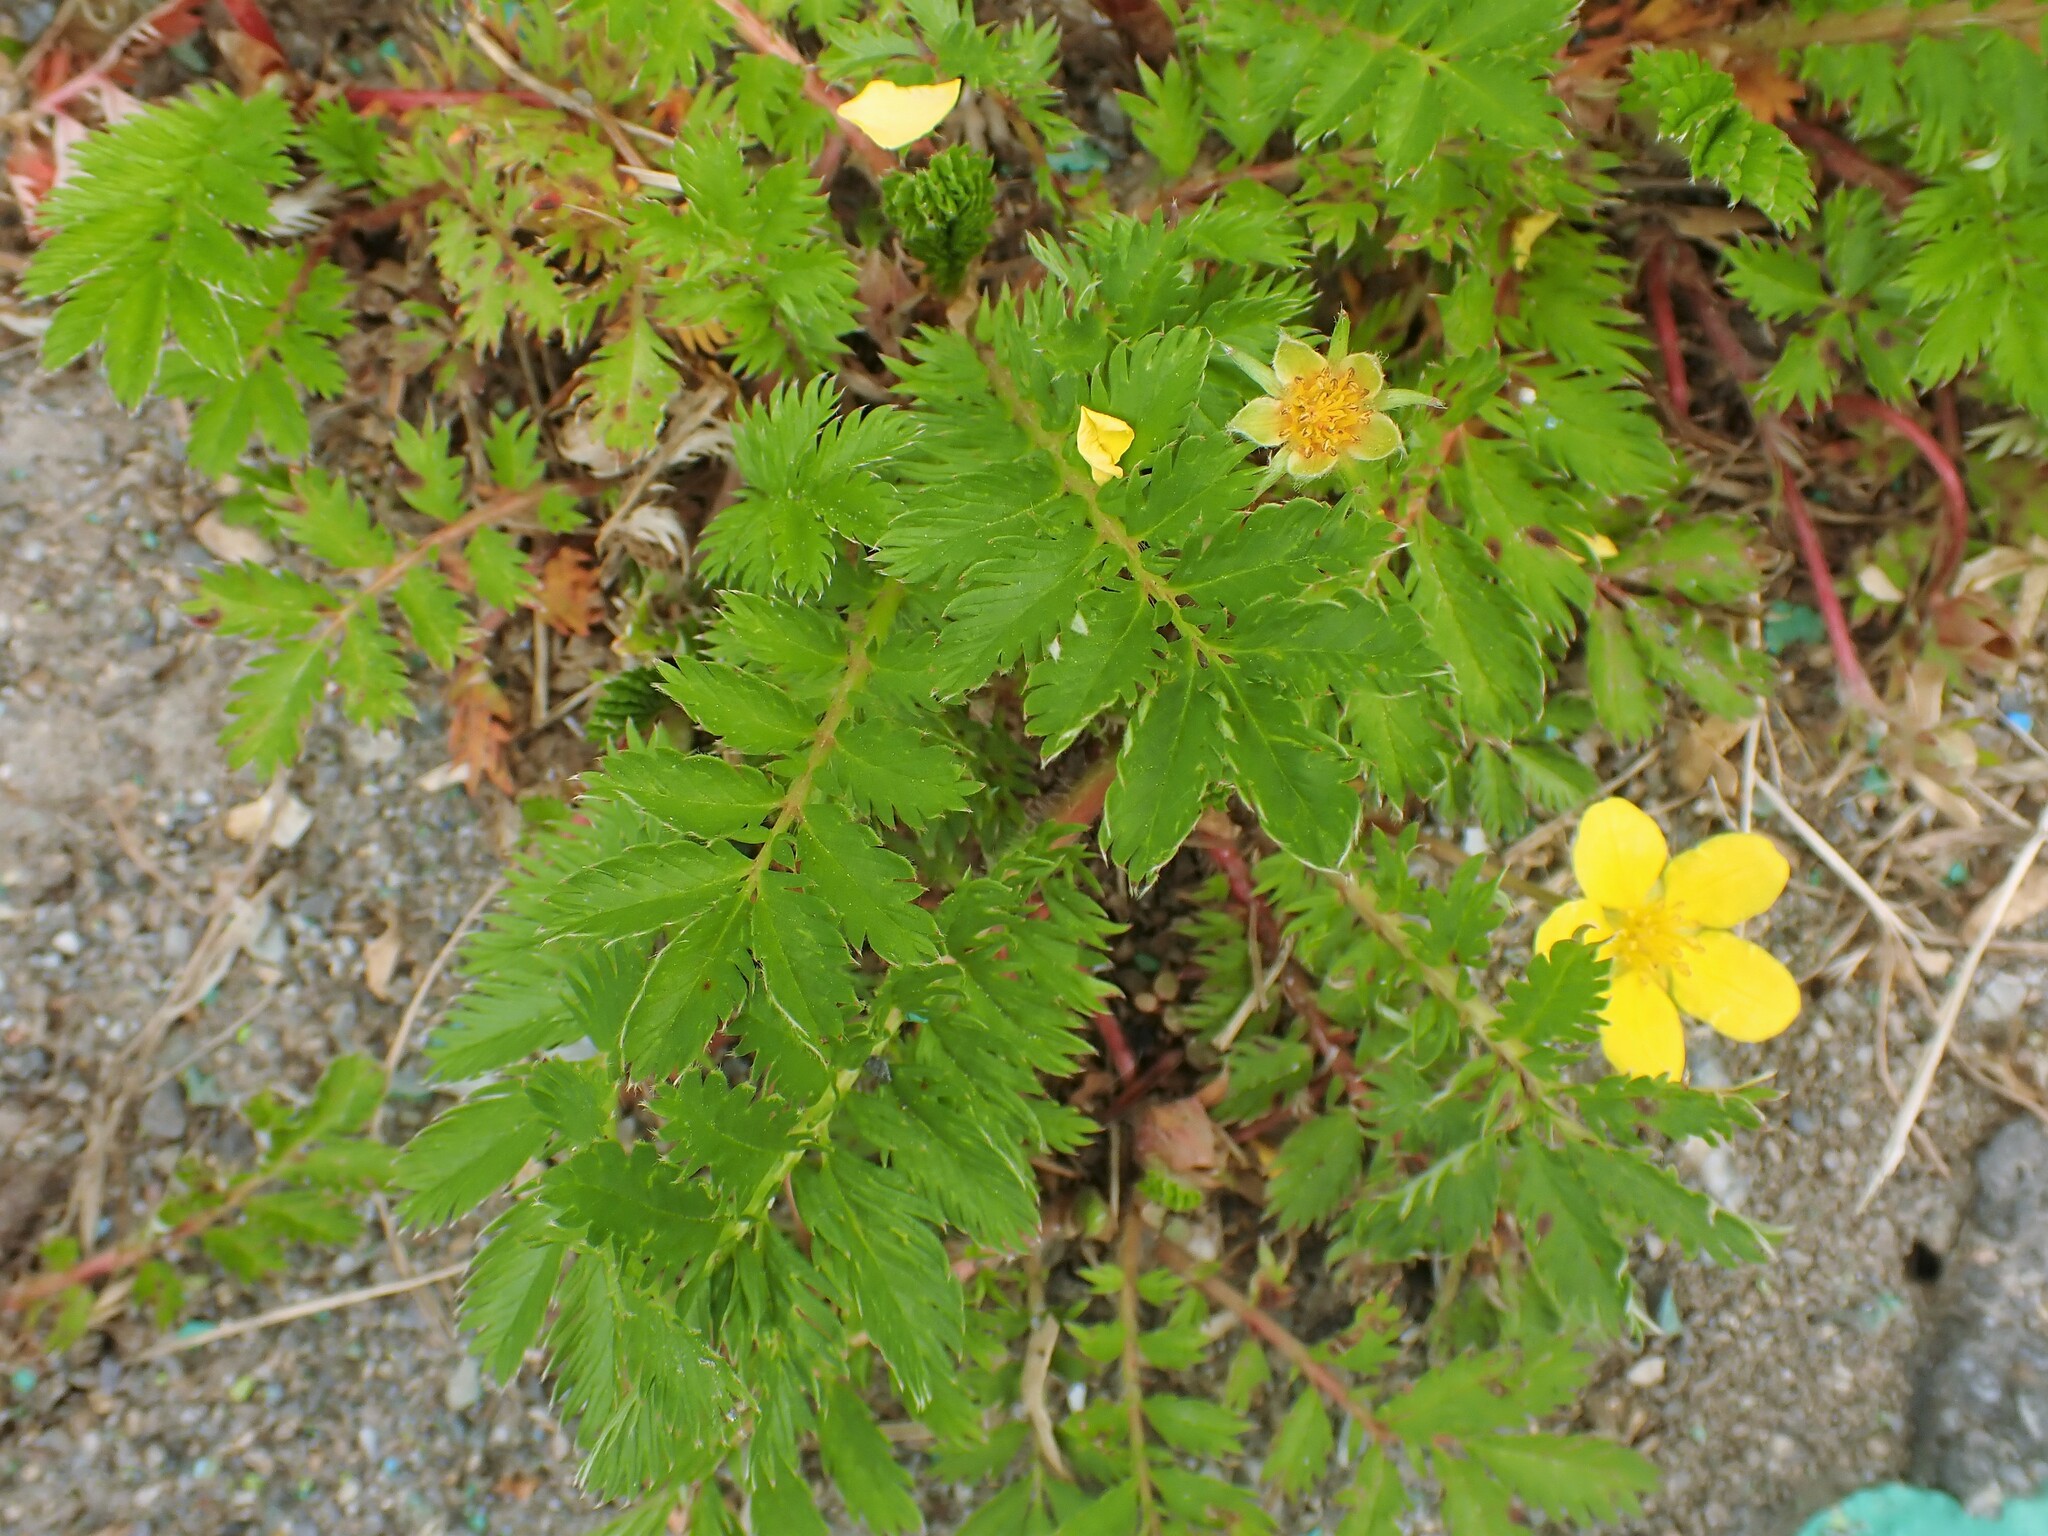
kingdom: Plantae
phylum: Tracheophyta
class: Magnoliopsida
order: Rosales
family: Rosaceae
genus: Argentina
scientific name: Argentina anserina
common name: Common silverweed
